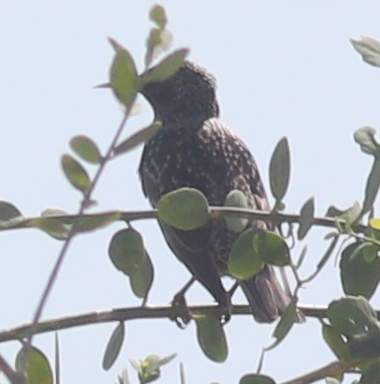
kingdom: Animalia
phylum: Chordata
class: Aves
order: Passeriformes
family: Sturnidae
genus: Sturnus
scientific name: Sturnus vulgaris
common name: Common starling
